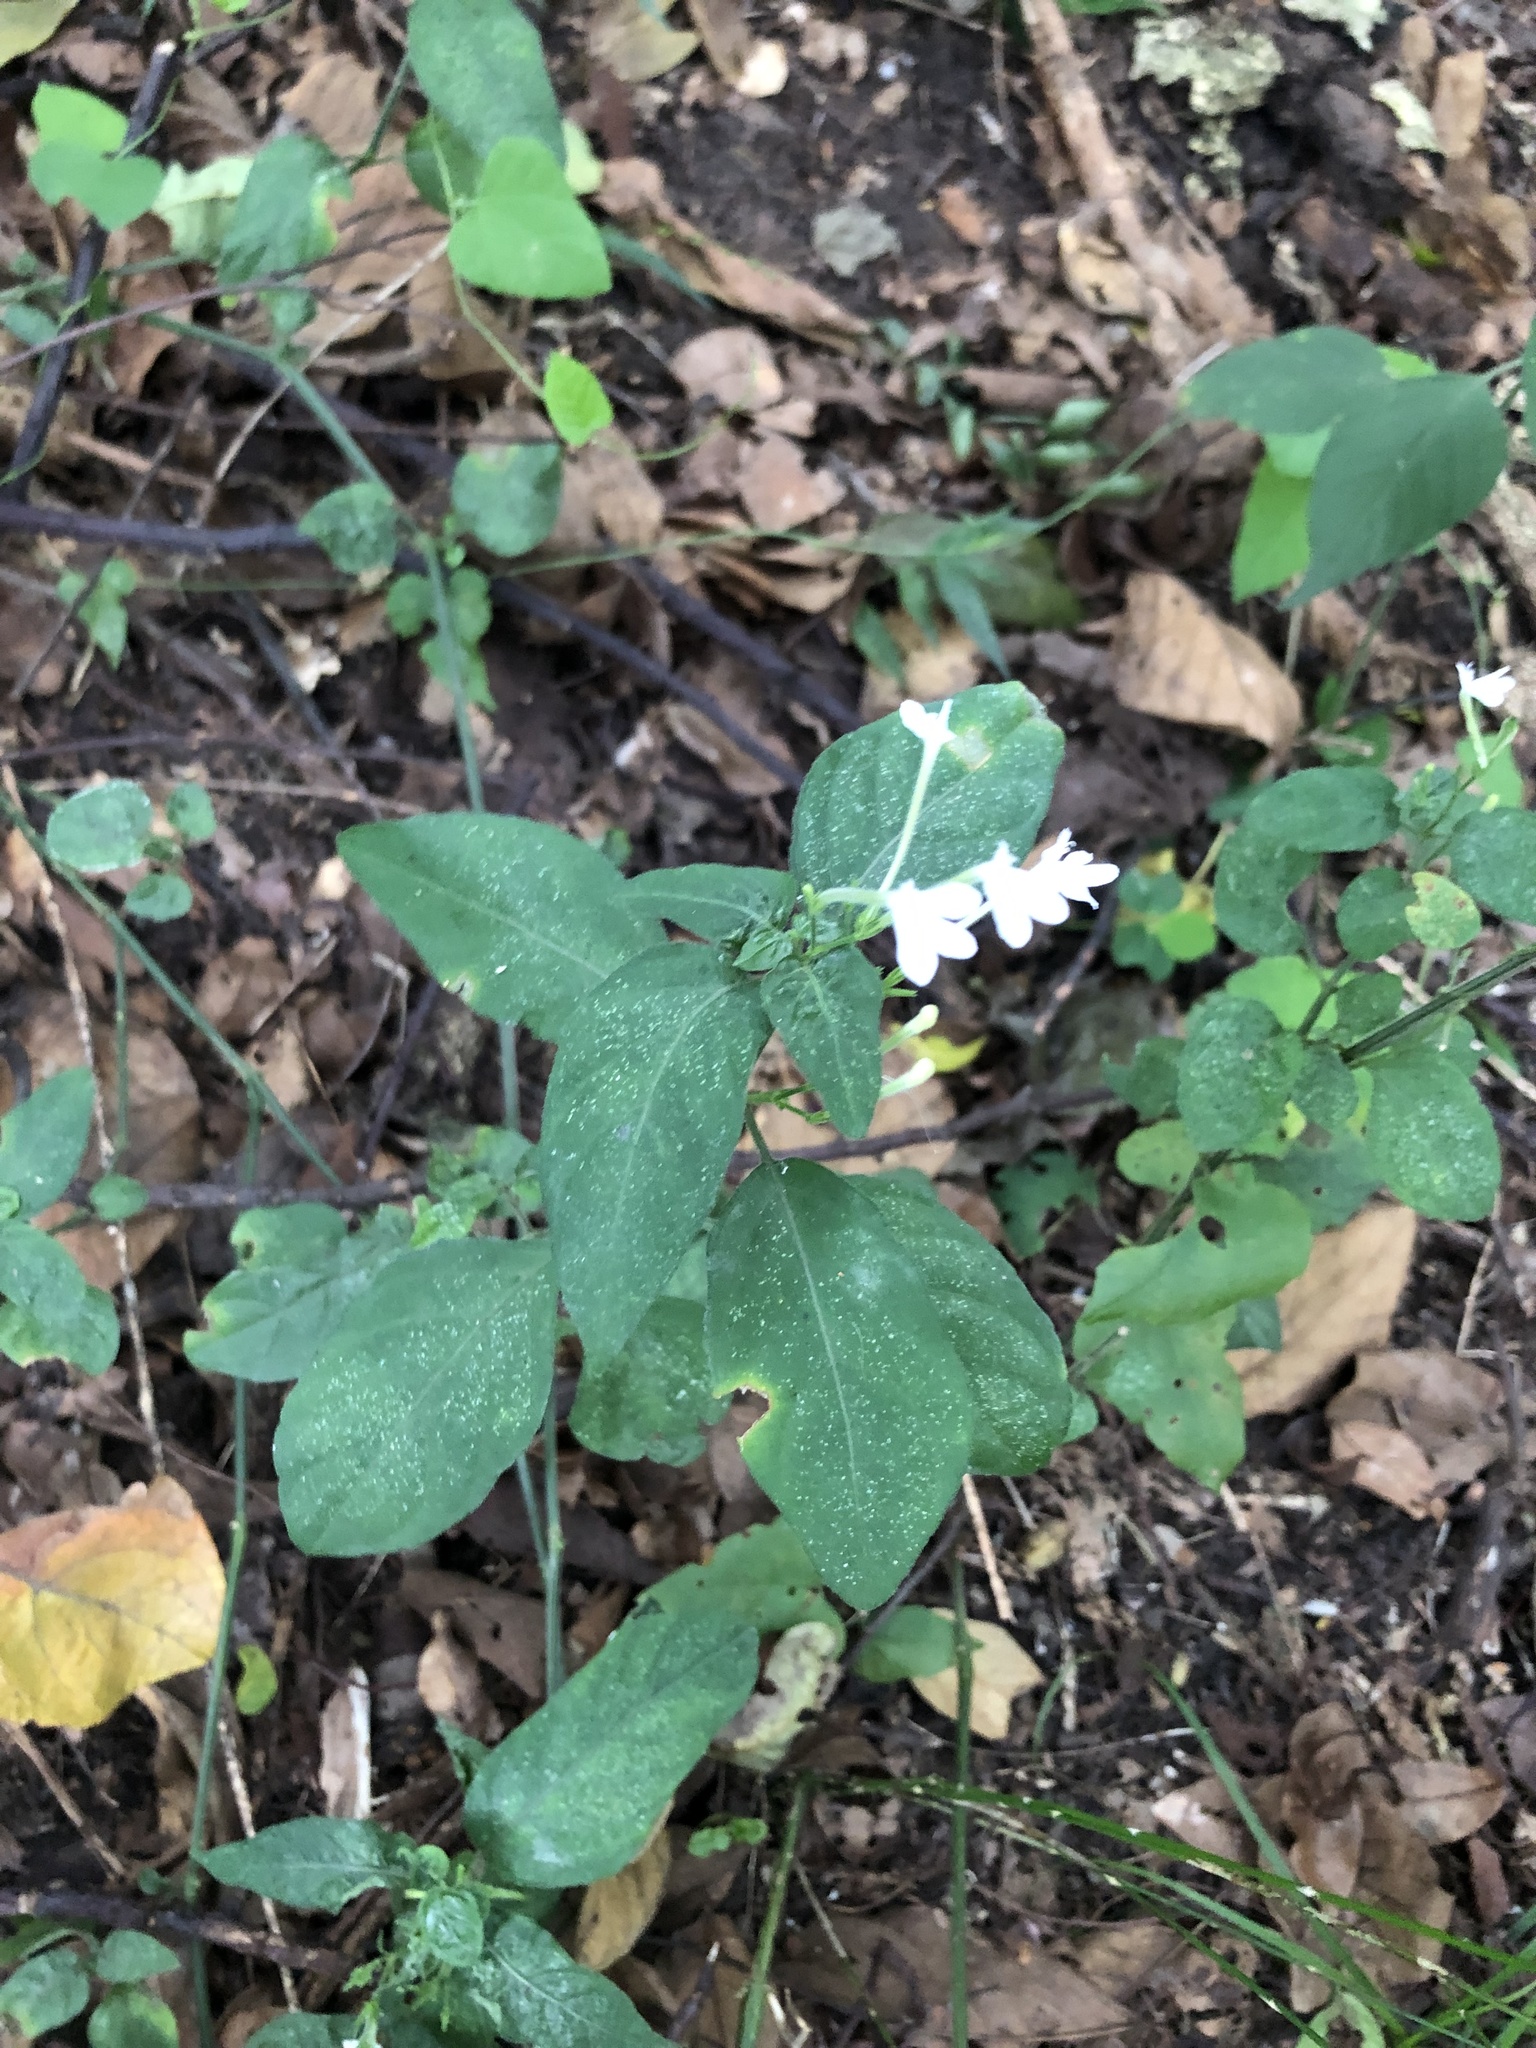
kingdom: Plantae
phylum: Tracheophyta
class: Magnoliopsida
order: Lamiales
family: Acanthaceae
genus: Rhinacanthus
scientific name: Rhinacanthus latilabiatus
